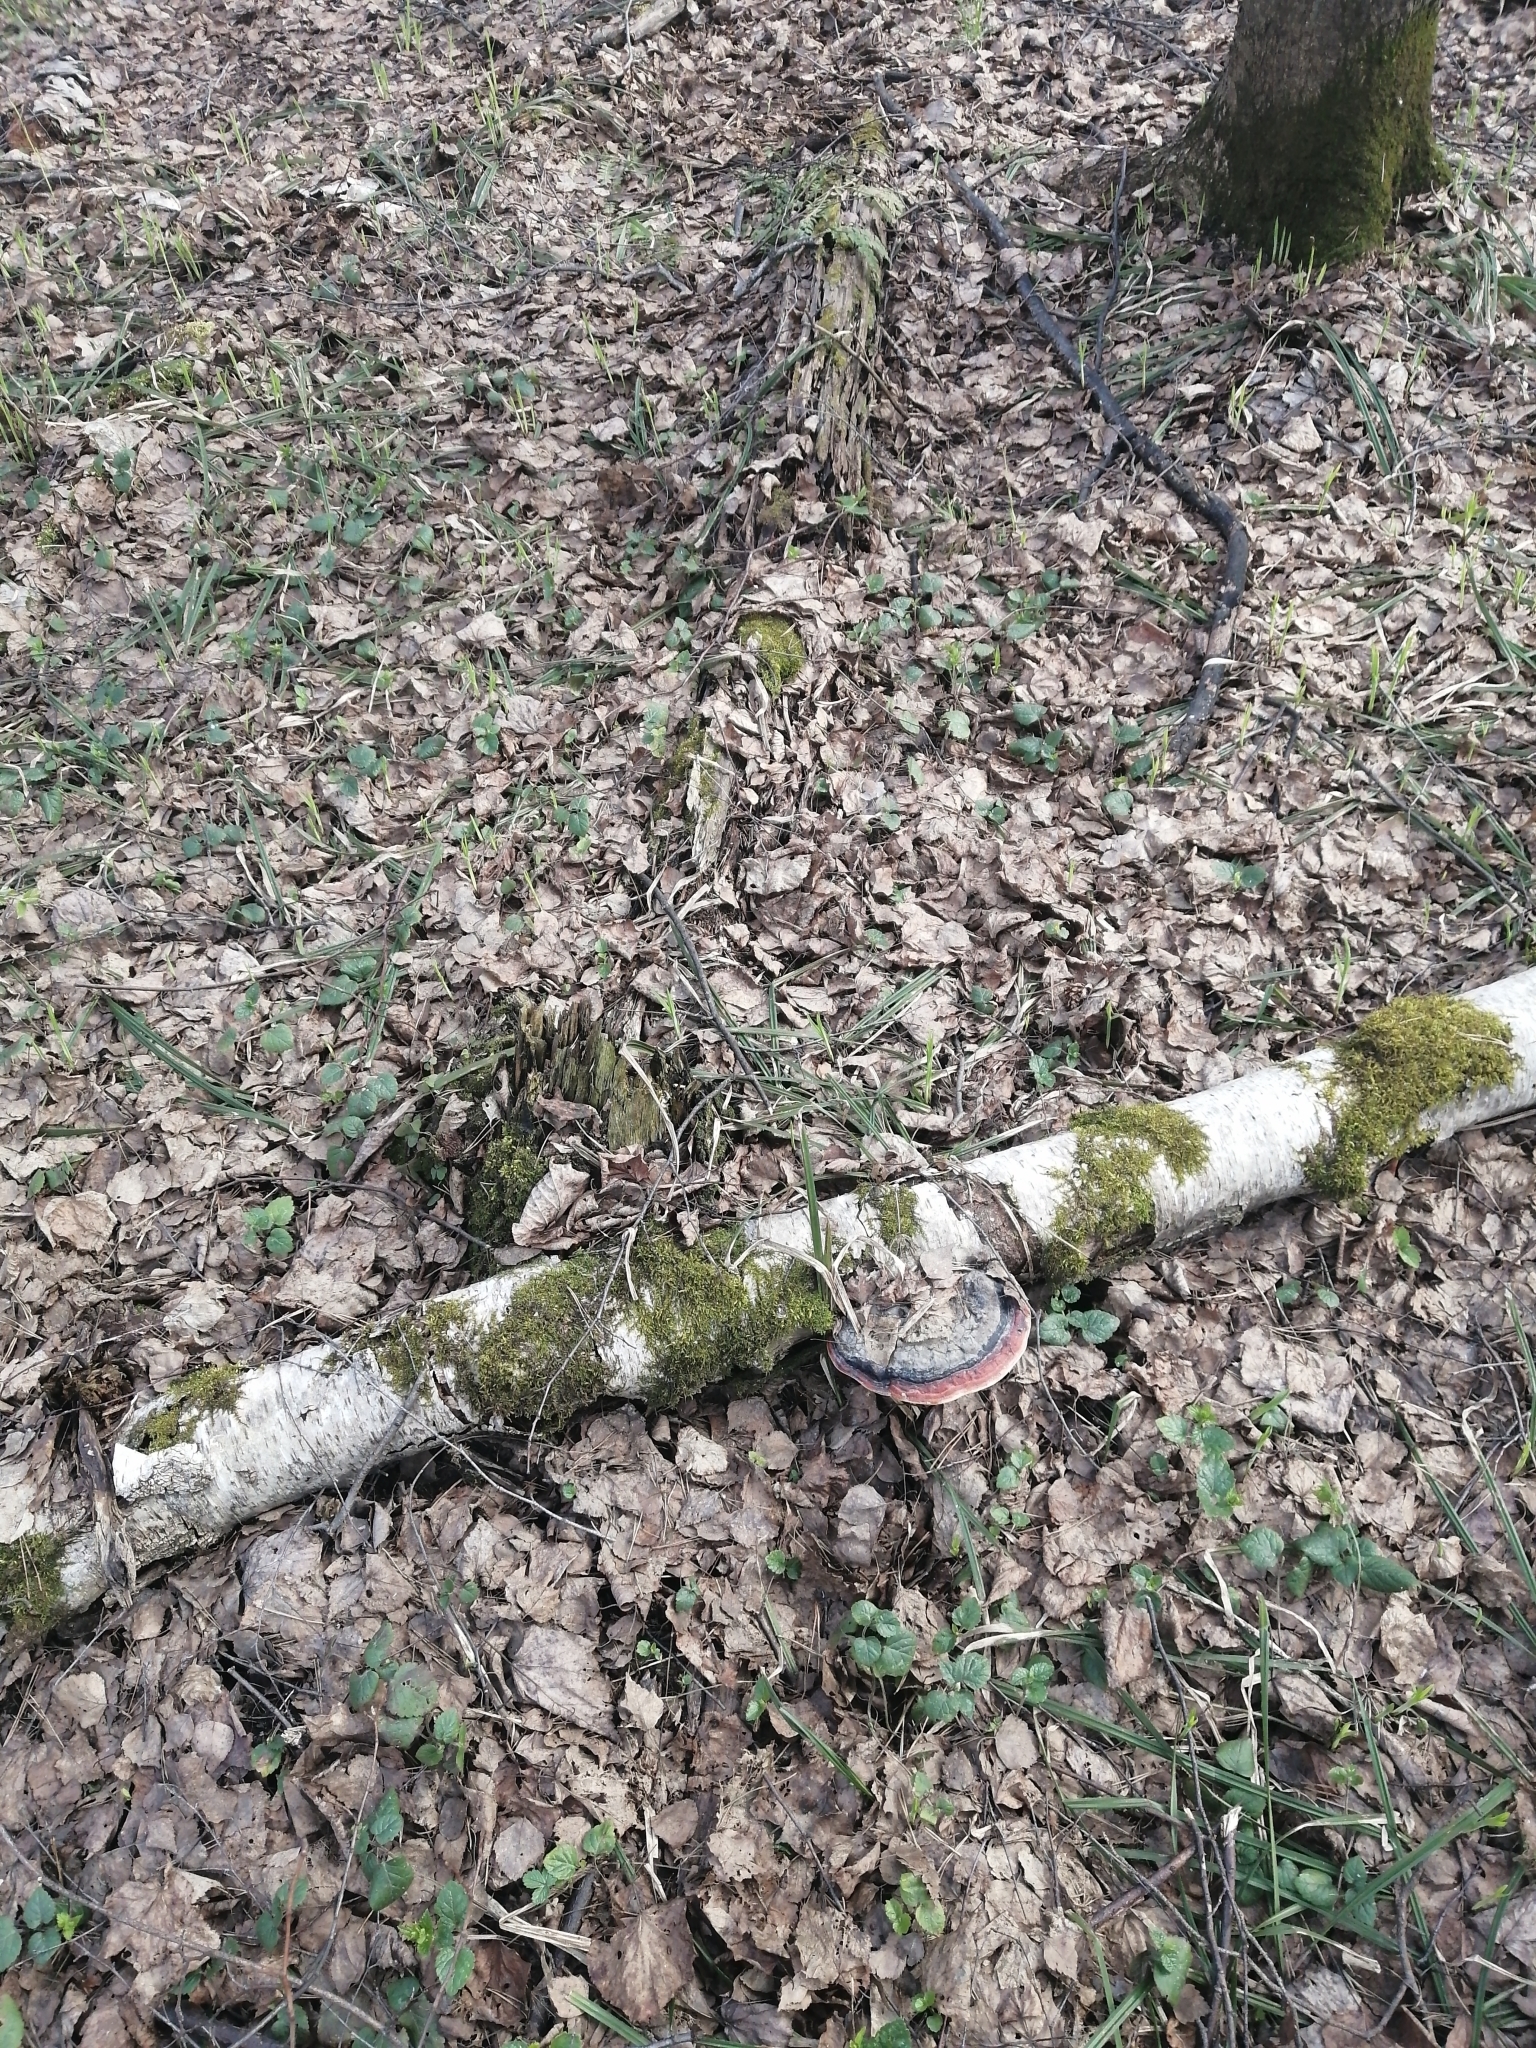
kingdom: Fungi
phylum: Basidiomycota
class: Agaricomycetes
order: Polyporales
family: Fomitopsidaceae
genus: Fomitopsis
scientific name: Fomitopsis pinicola
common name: Red-belted bracket
